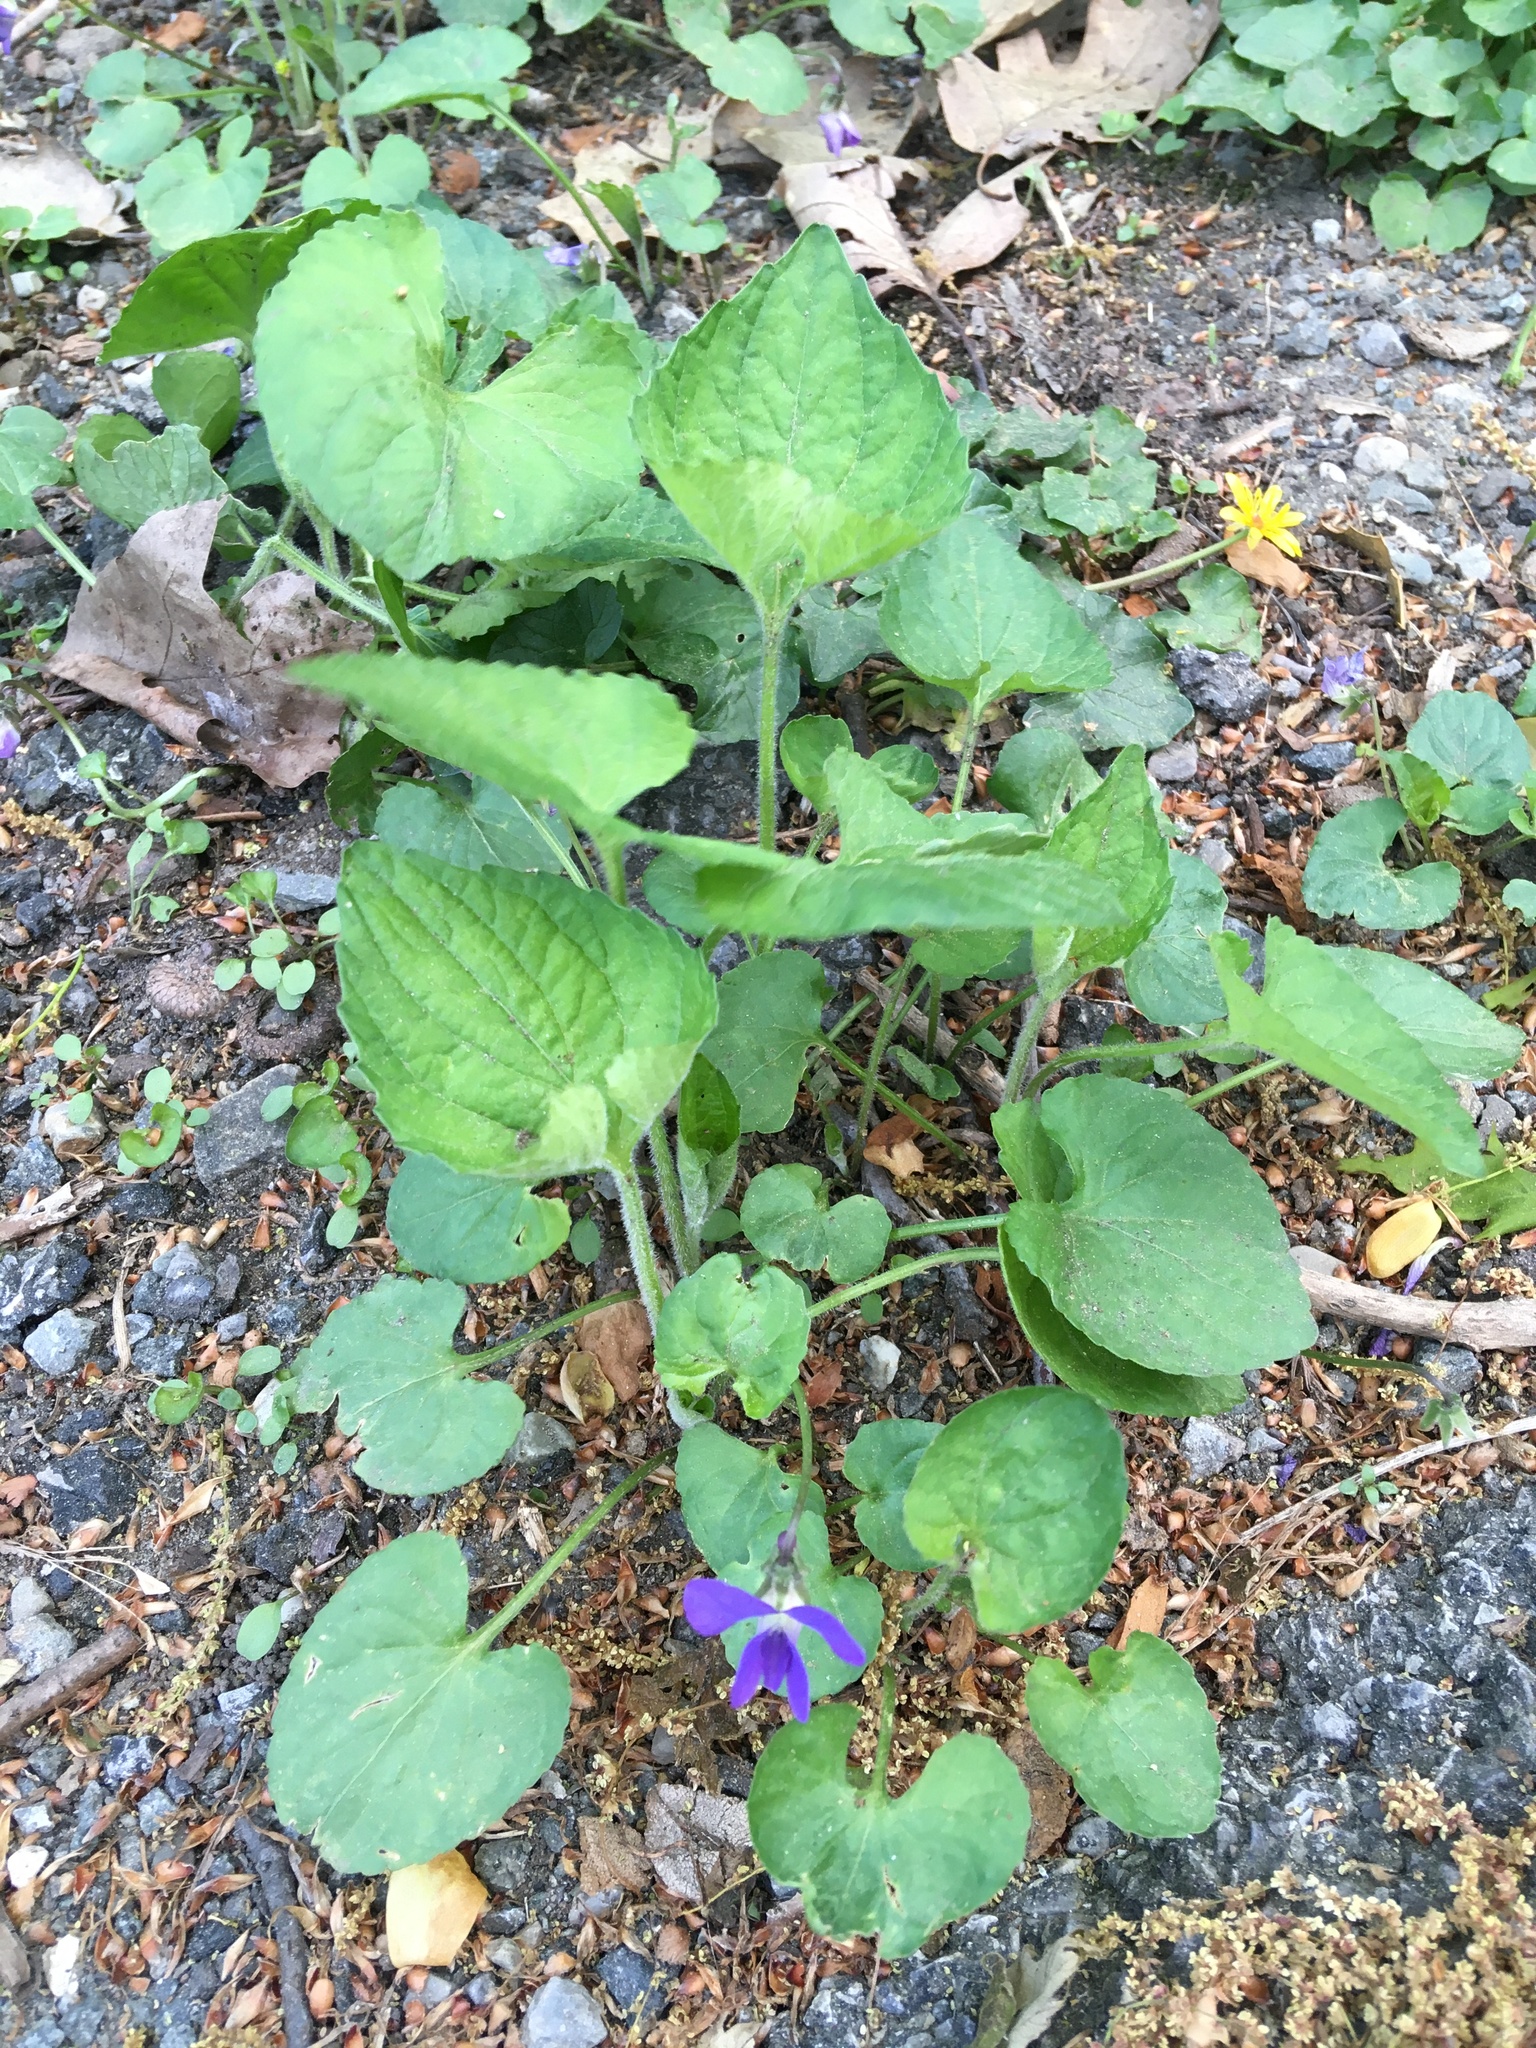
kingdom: Plantae
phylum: Tracheophyta
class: Magnoliopsida
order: Malpighiales
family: Violaceae
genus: Viola
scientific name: Viola sororia
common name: Dooryard violet
